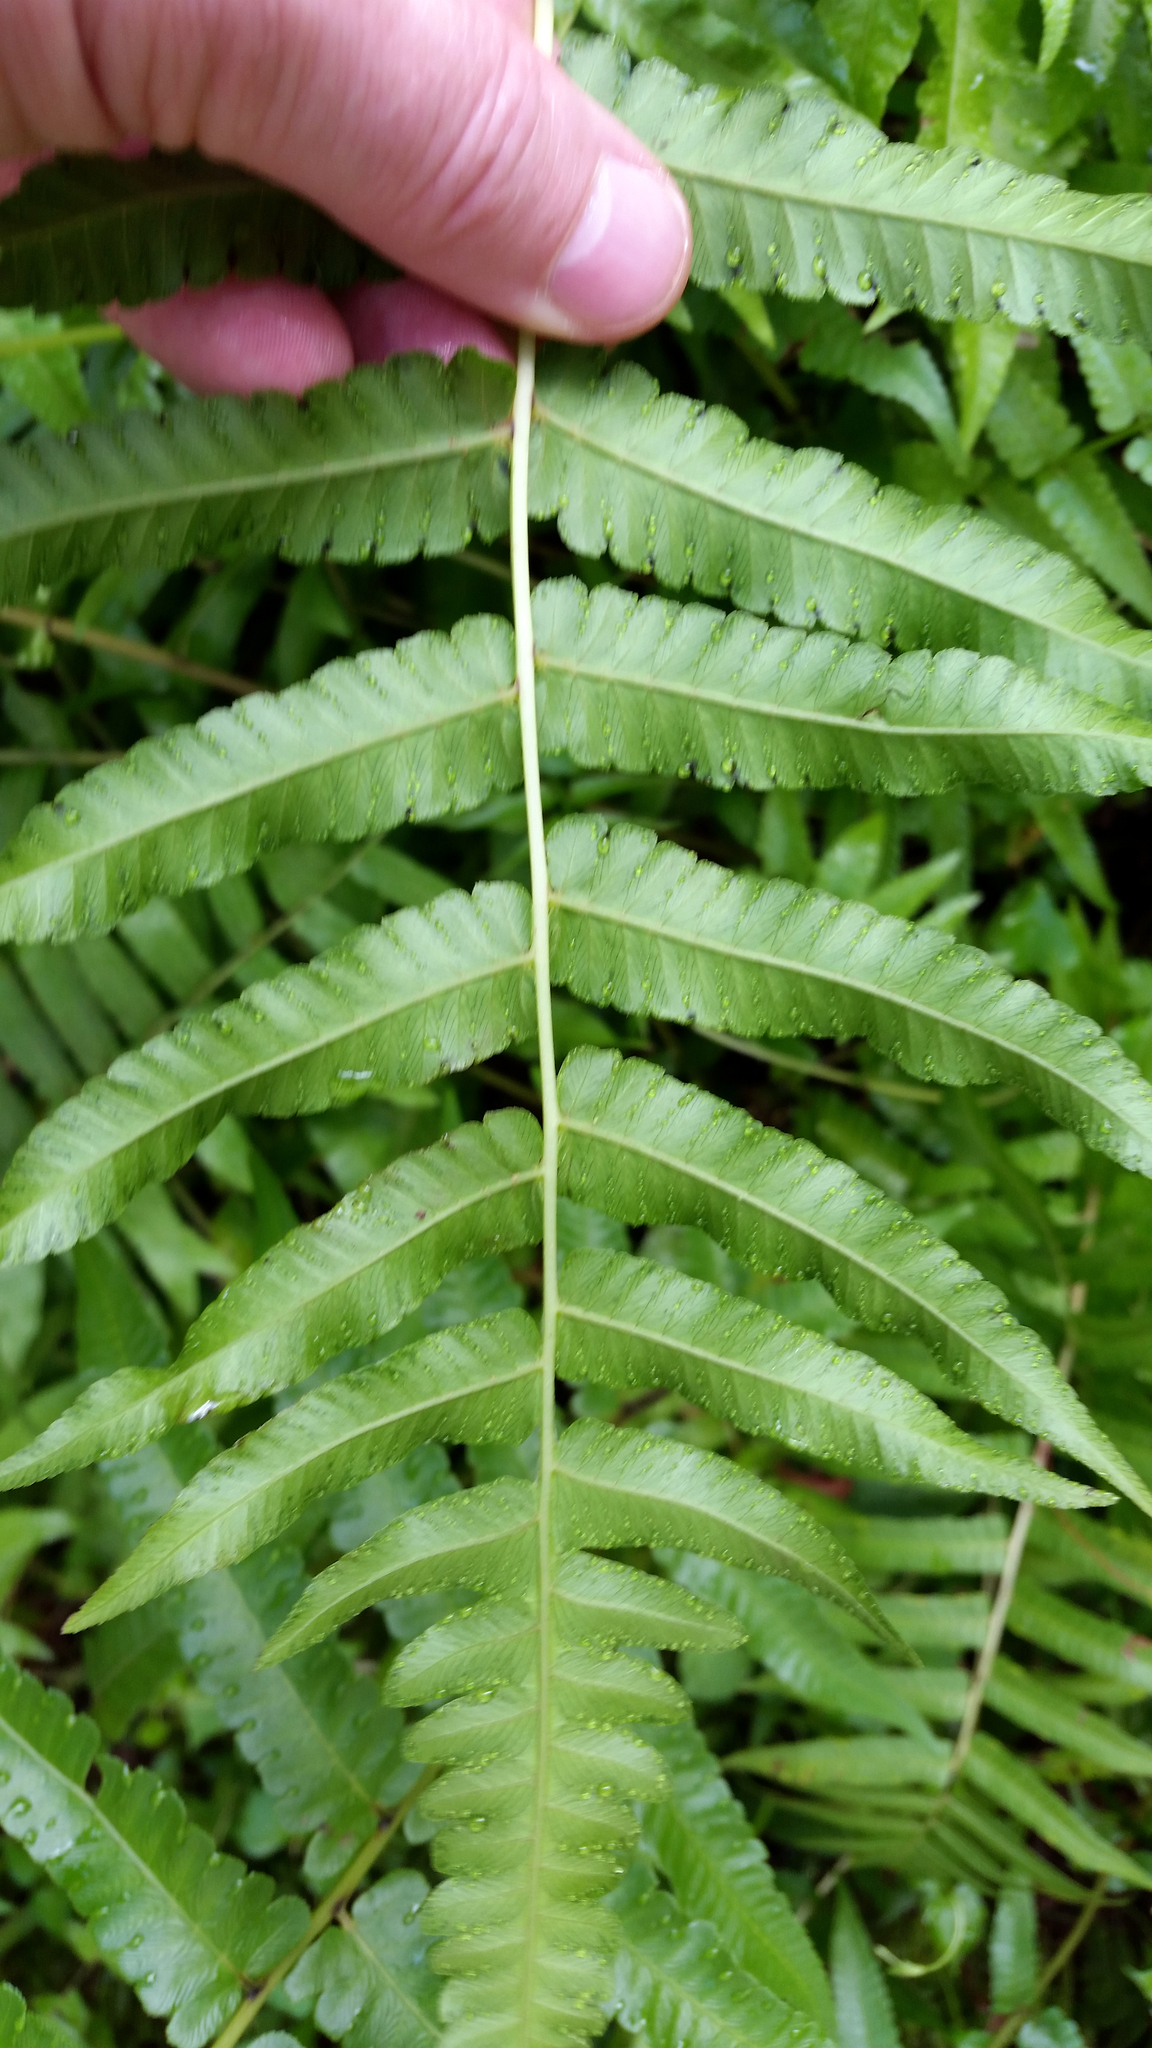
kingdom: Plantae
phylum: Tracheophyta
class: Polypodiopsida
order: Polypodiales
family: Athyriaceae
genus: Diplazium
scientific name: Diplazium esculentum
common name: Vegetable fern
